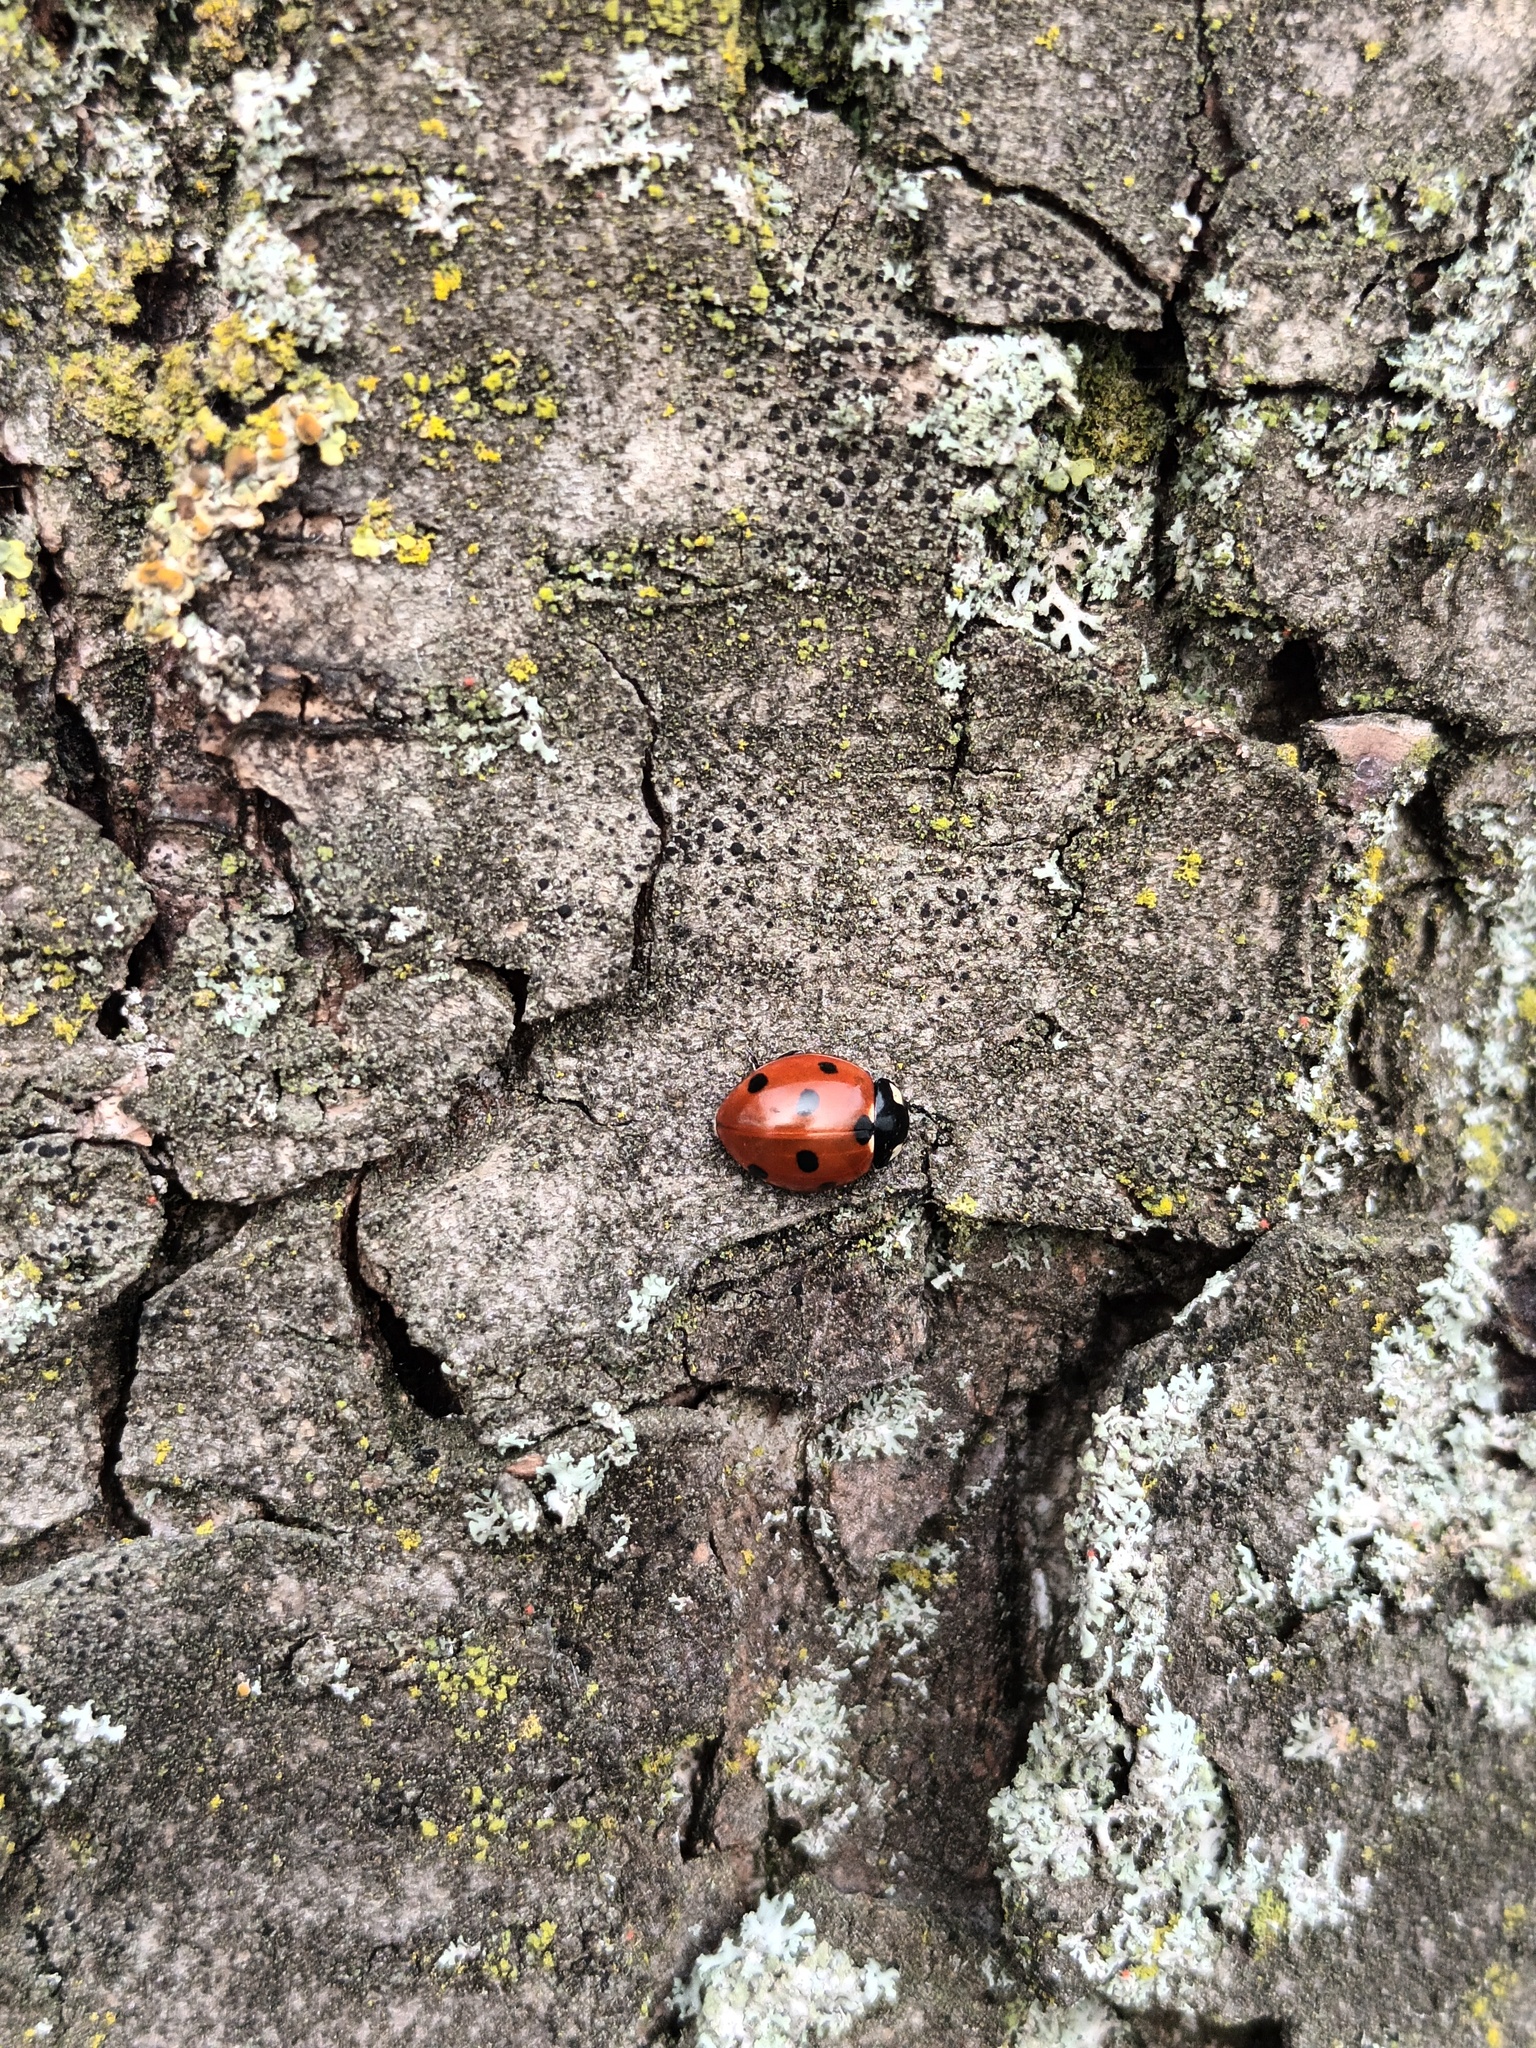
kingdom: Animalia
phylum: Arthropoda
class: Insecta
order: Coleoptera
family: Coccinellidae
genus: Coccinella
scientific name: Coccinella septempunctata
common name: Sevenspotted lady beetle
